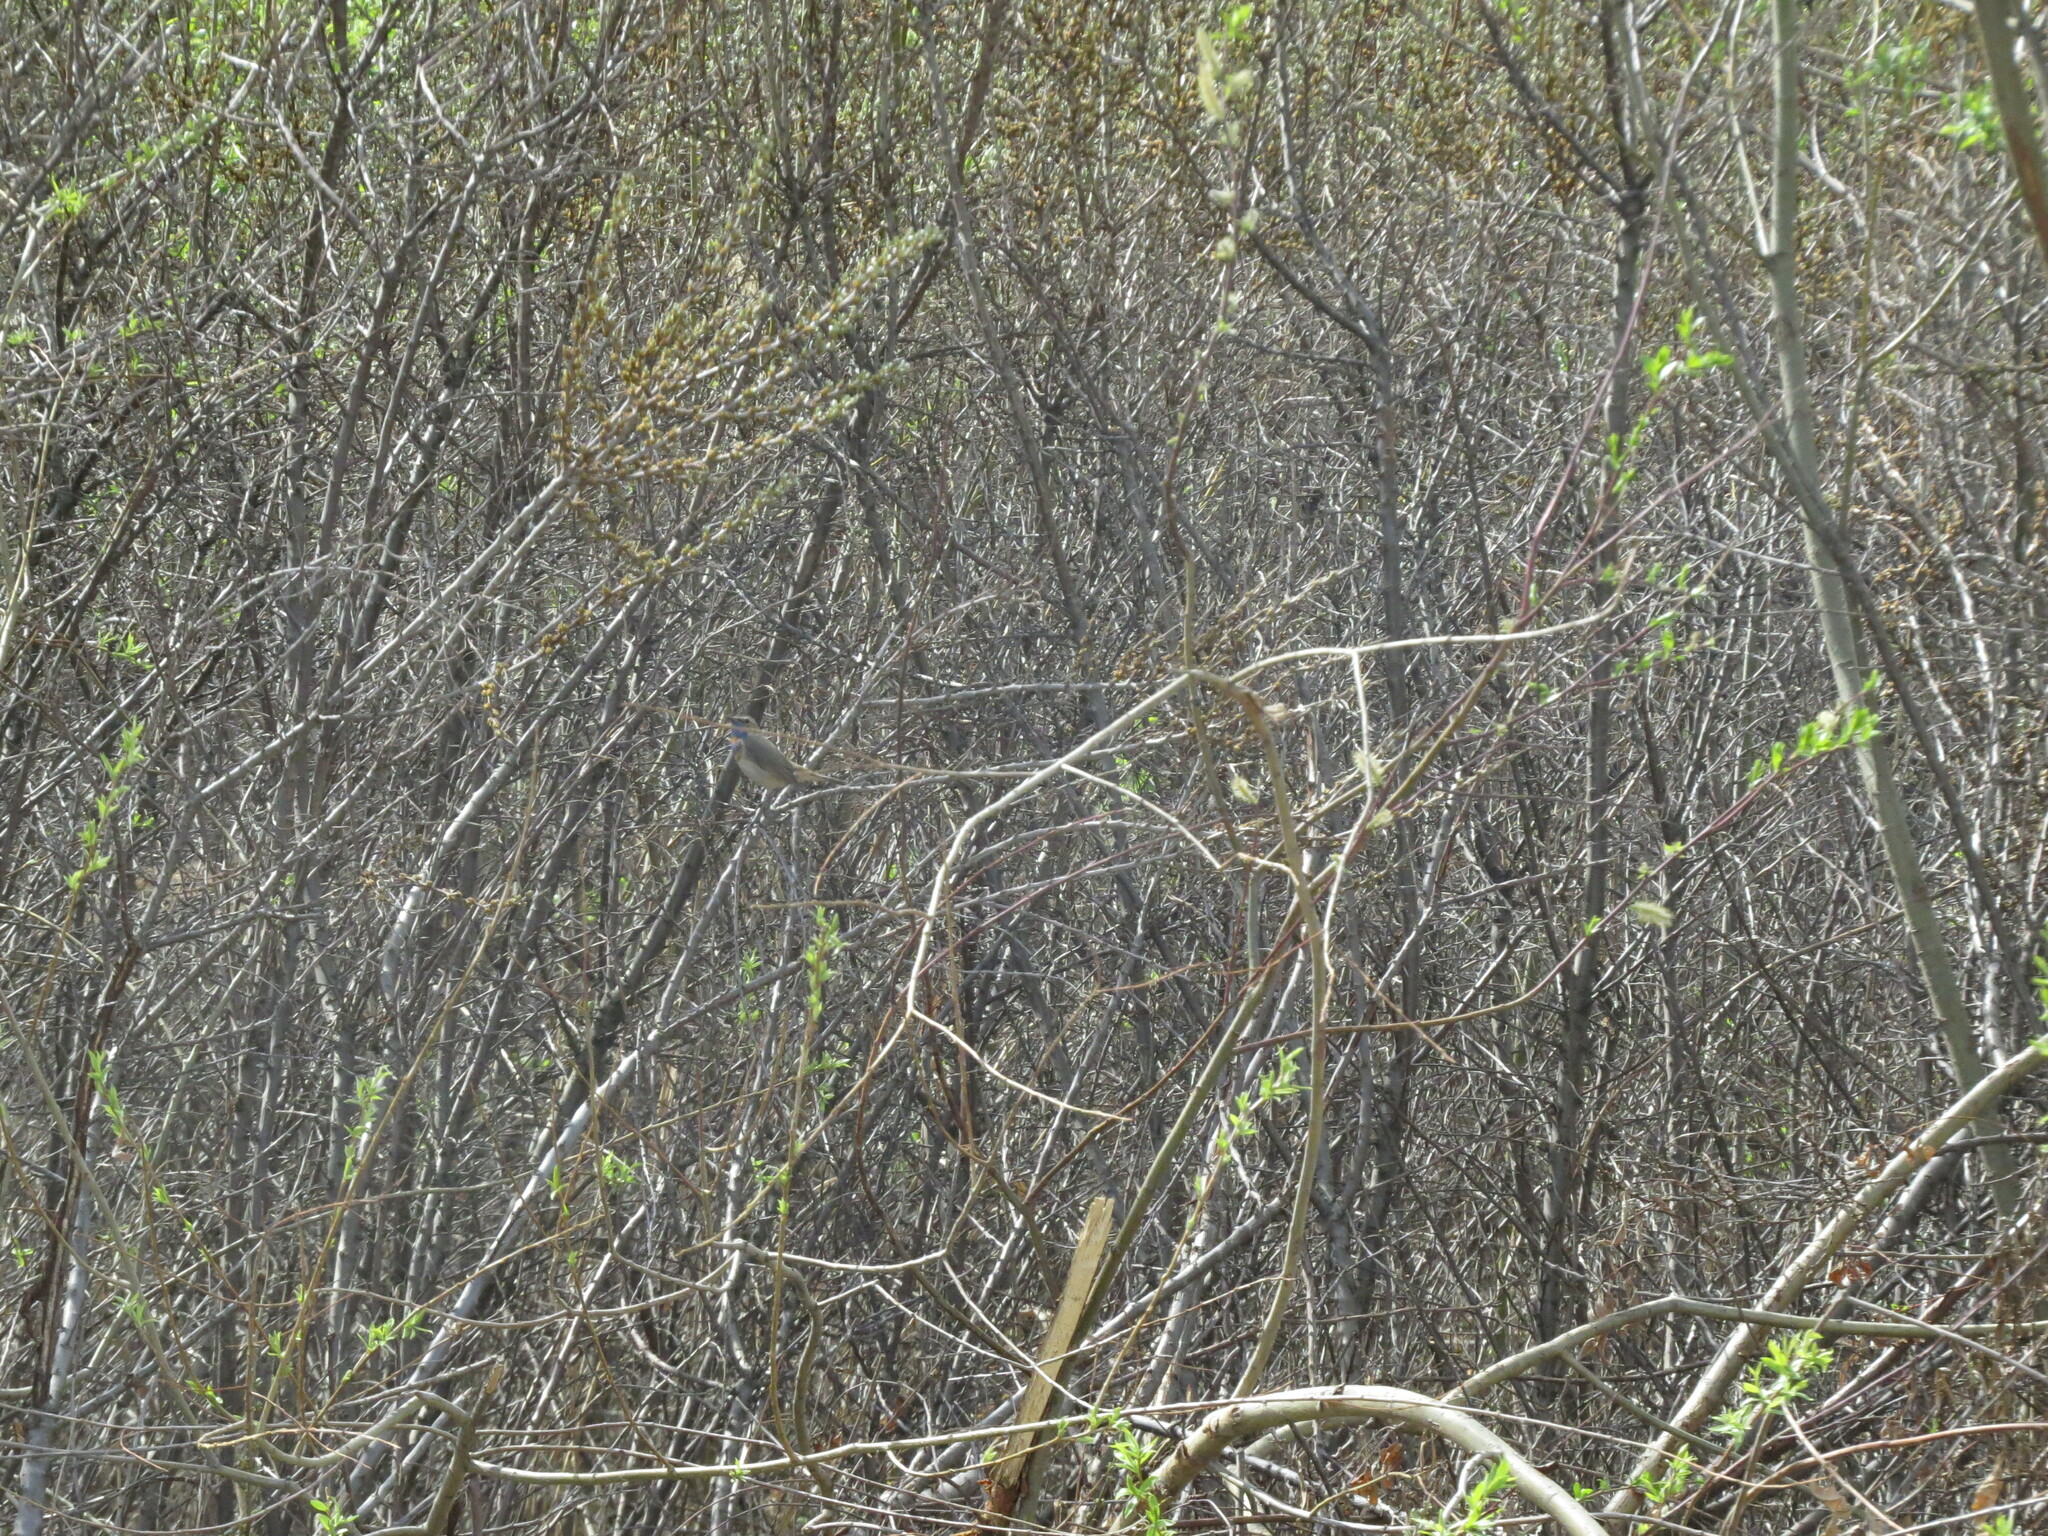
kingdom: Animalia
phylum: Chordata
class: Aves
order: Passeriformes
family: Muscicapidae
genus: Luscinia
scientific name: Luscinia svecica
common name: Bluethroat
